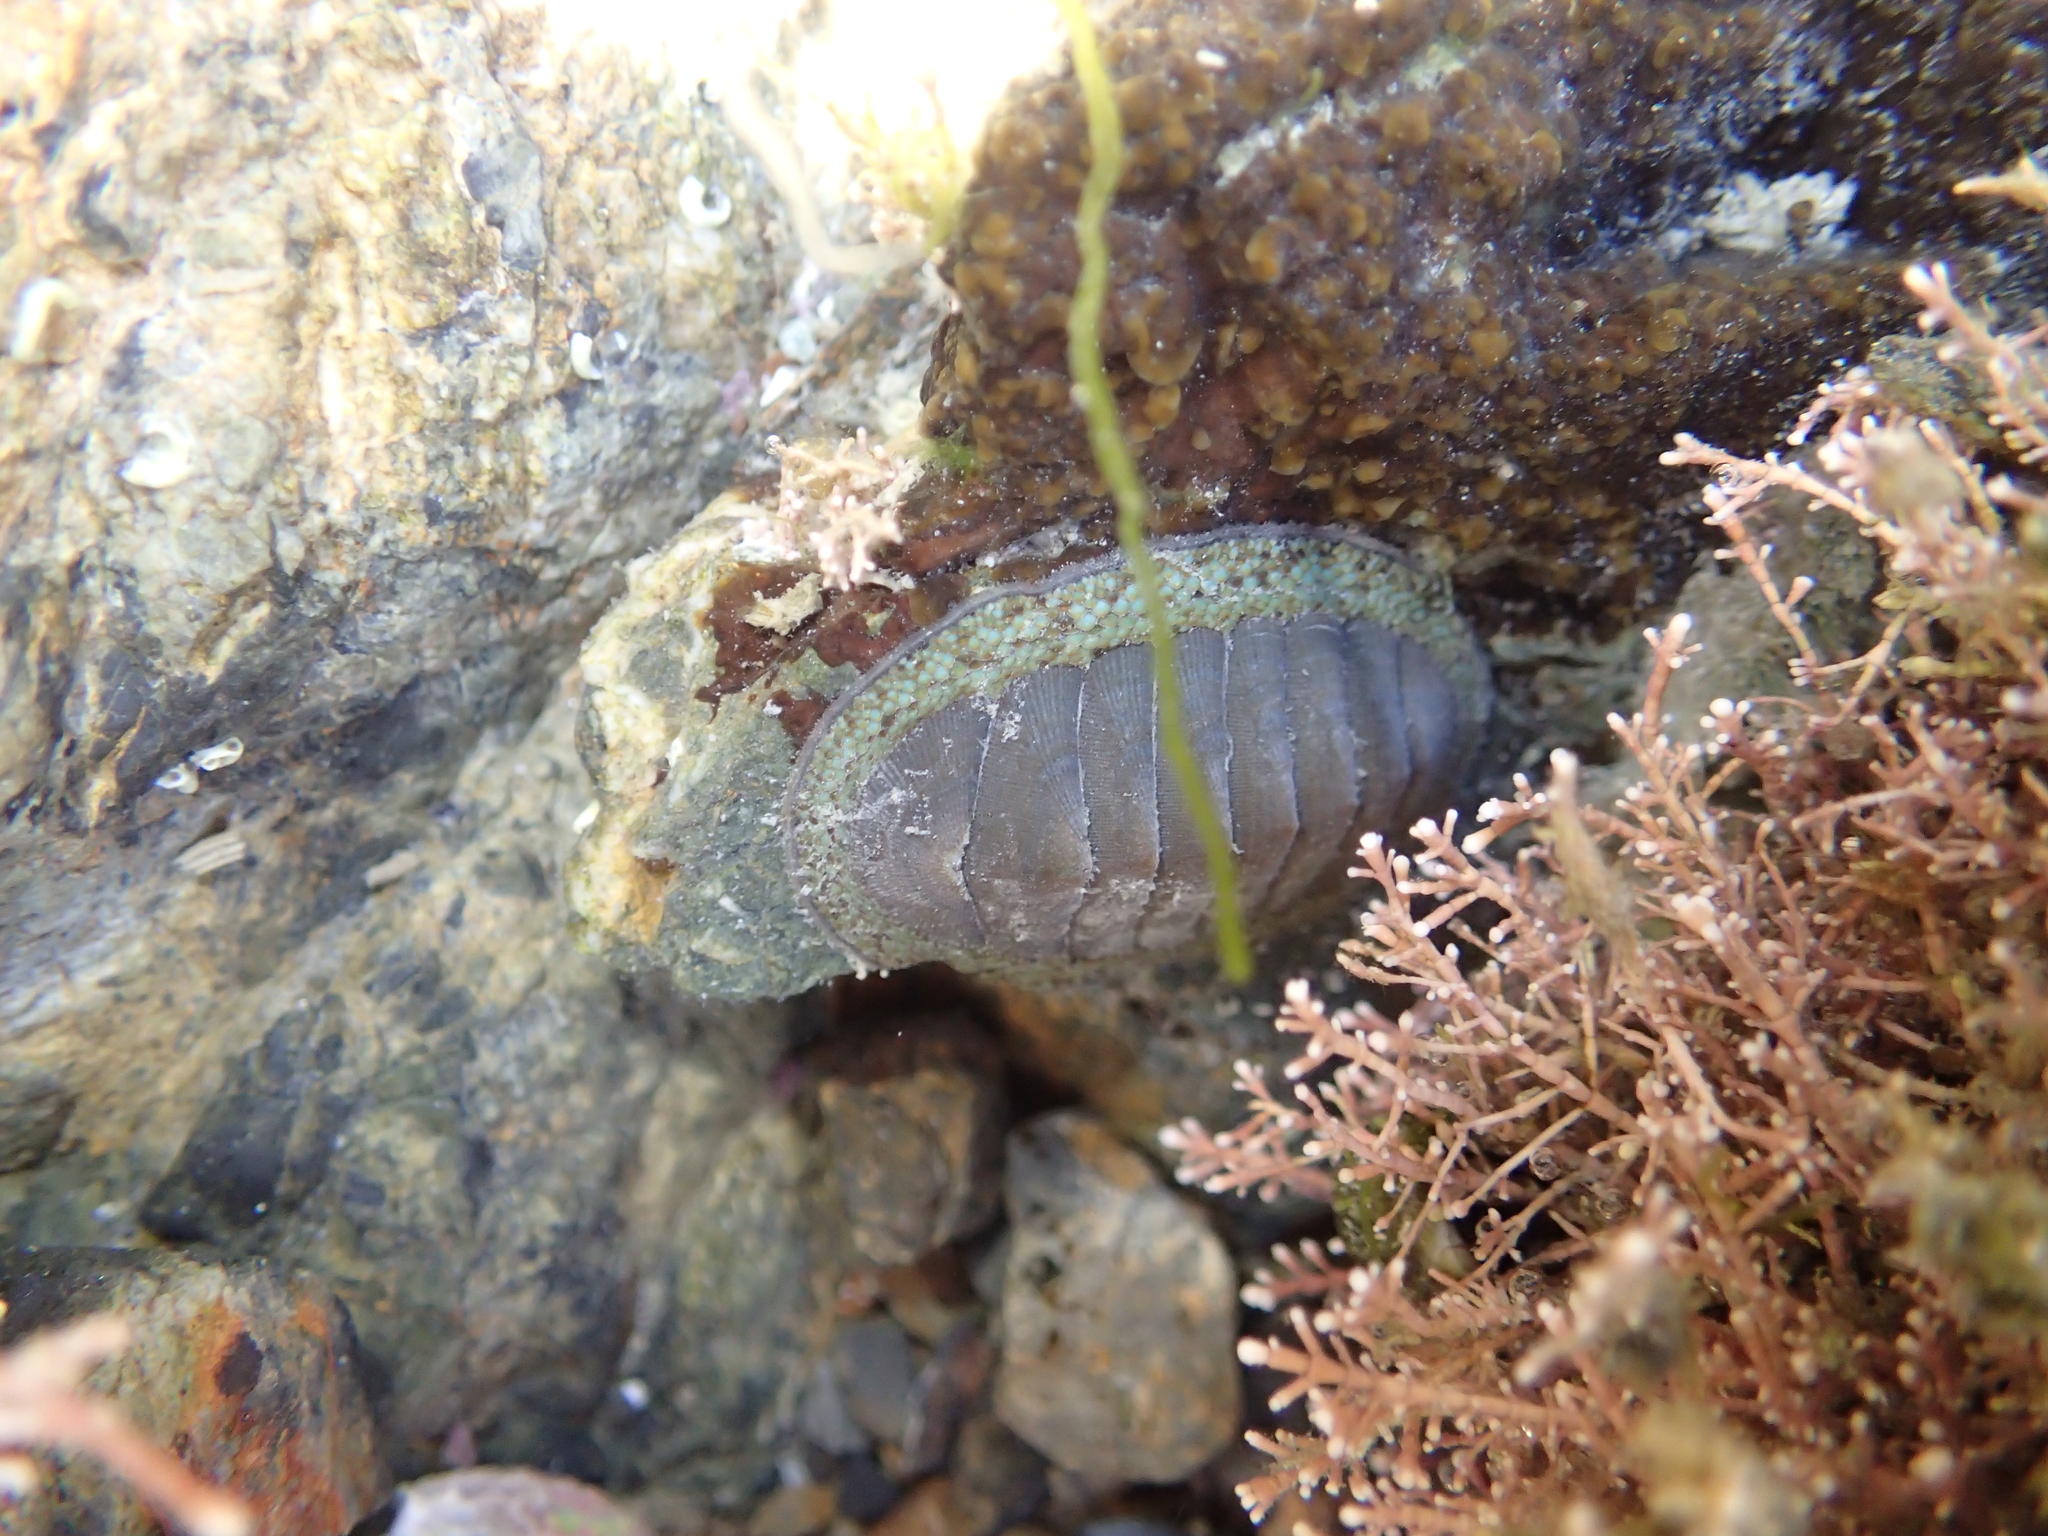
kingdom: Animalia
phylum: Mollusca
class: Polyplacophora
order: Chitonida
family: Chitonidae
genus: Chiton
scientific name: Chiton glaucus
